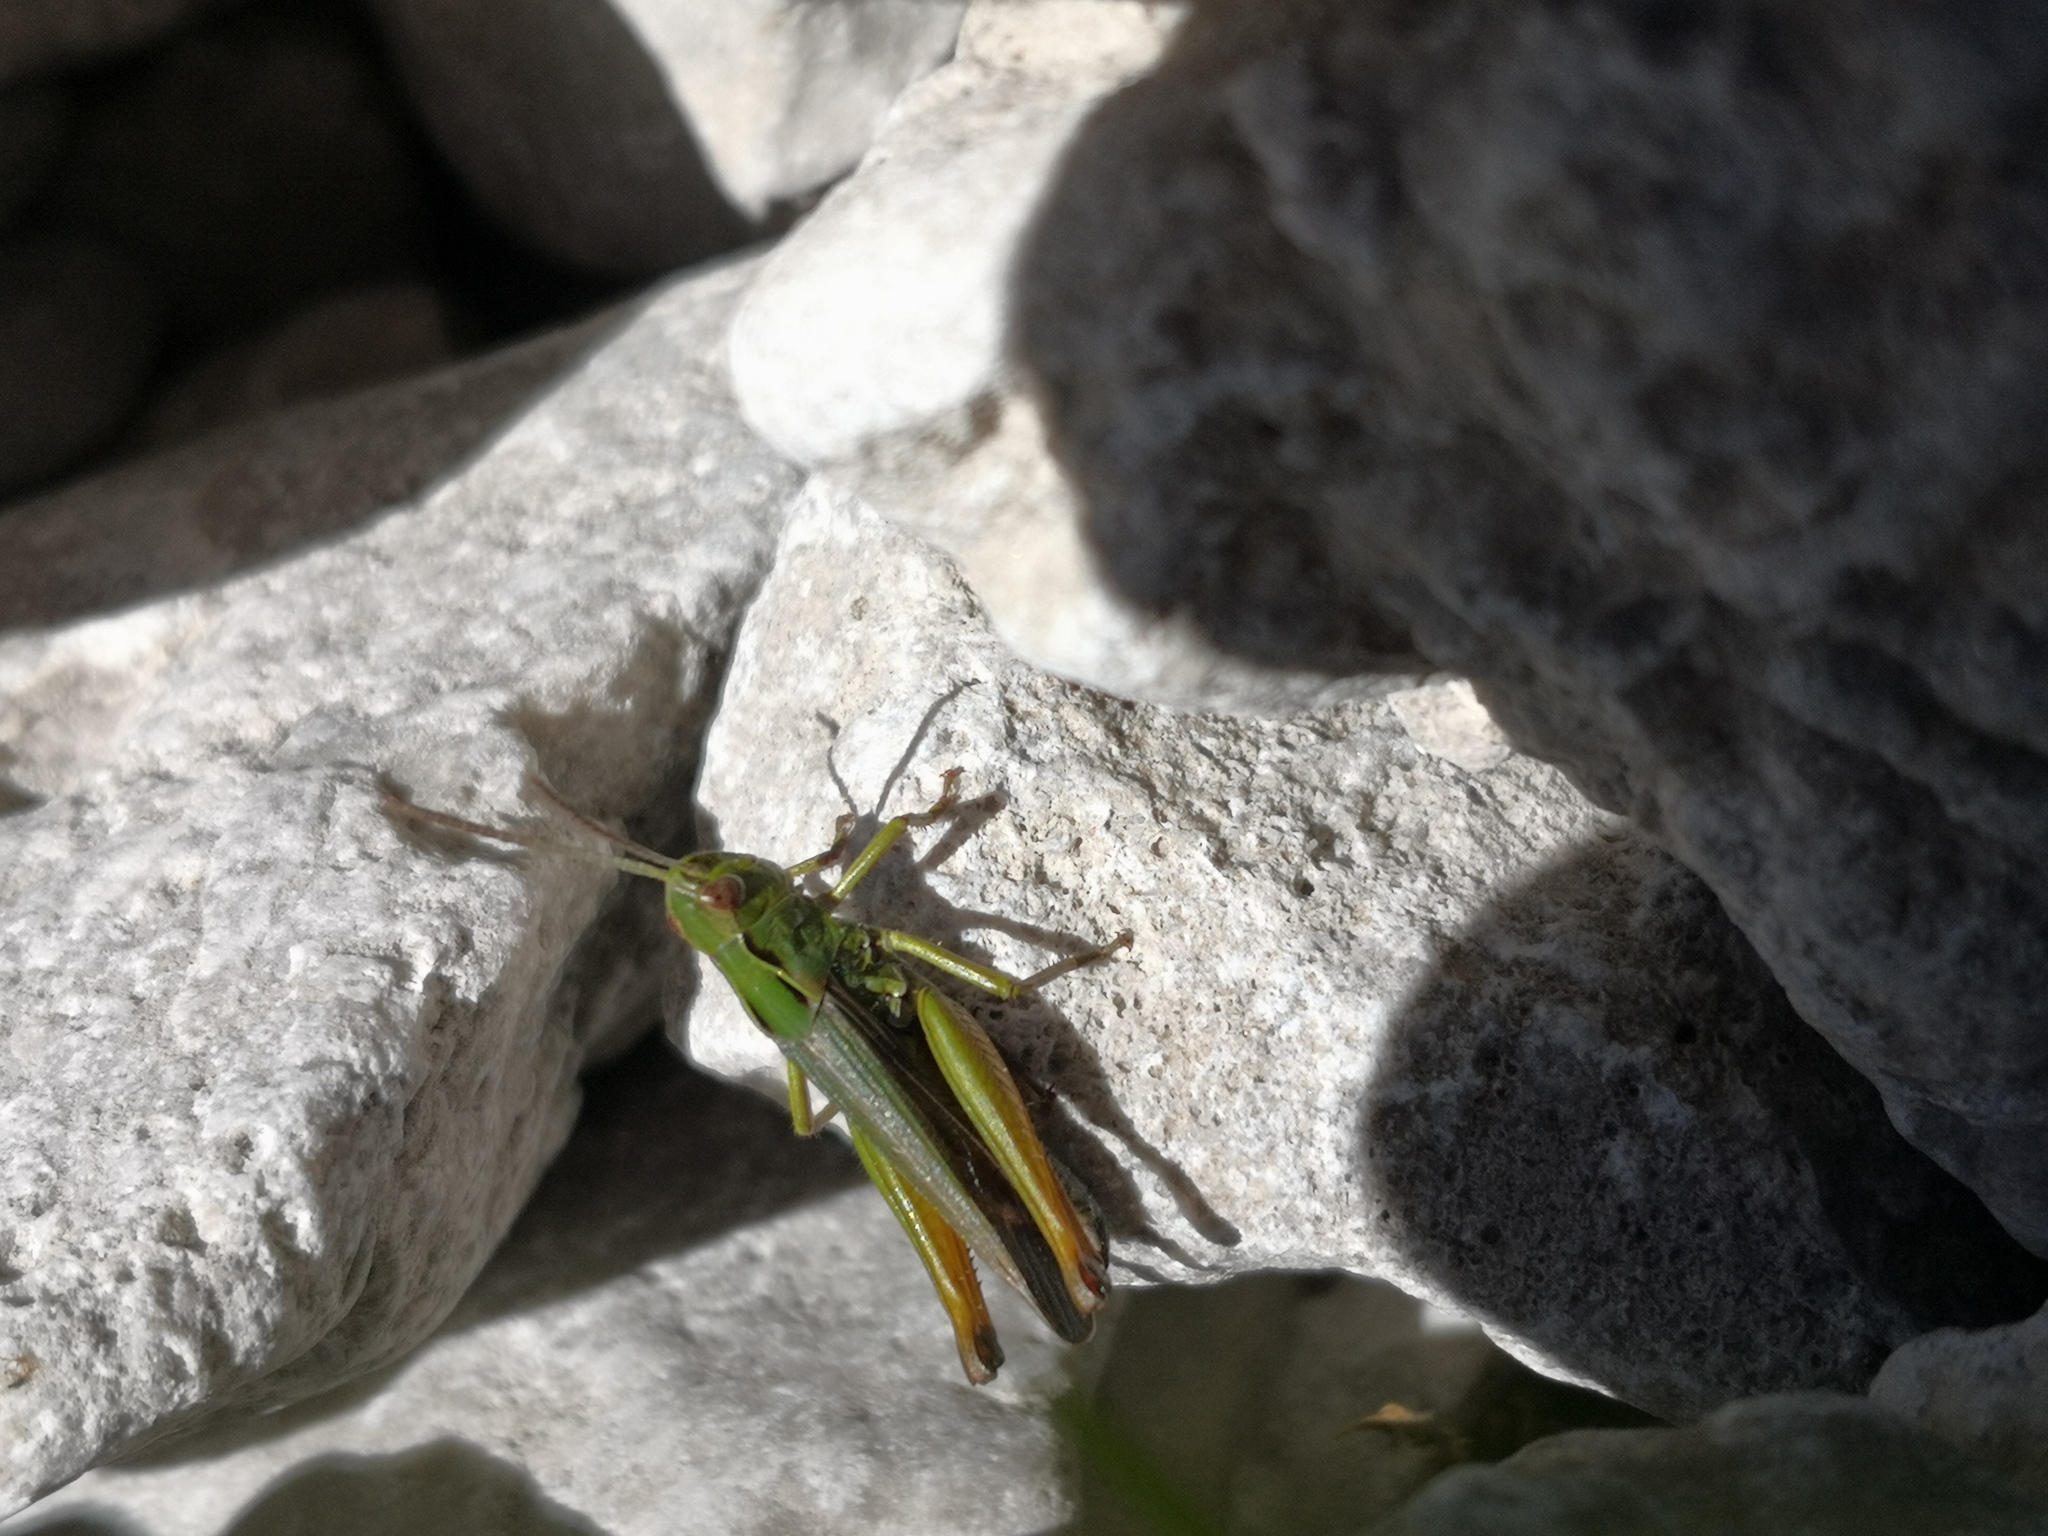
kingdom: Animalia
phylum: Arthropoda
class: Insecta
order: Orthoptera
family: Acrididae
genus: Omocestus
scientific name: Omocestus viridulus
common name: Common green grasshopper
